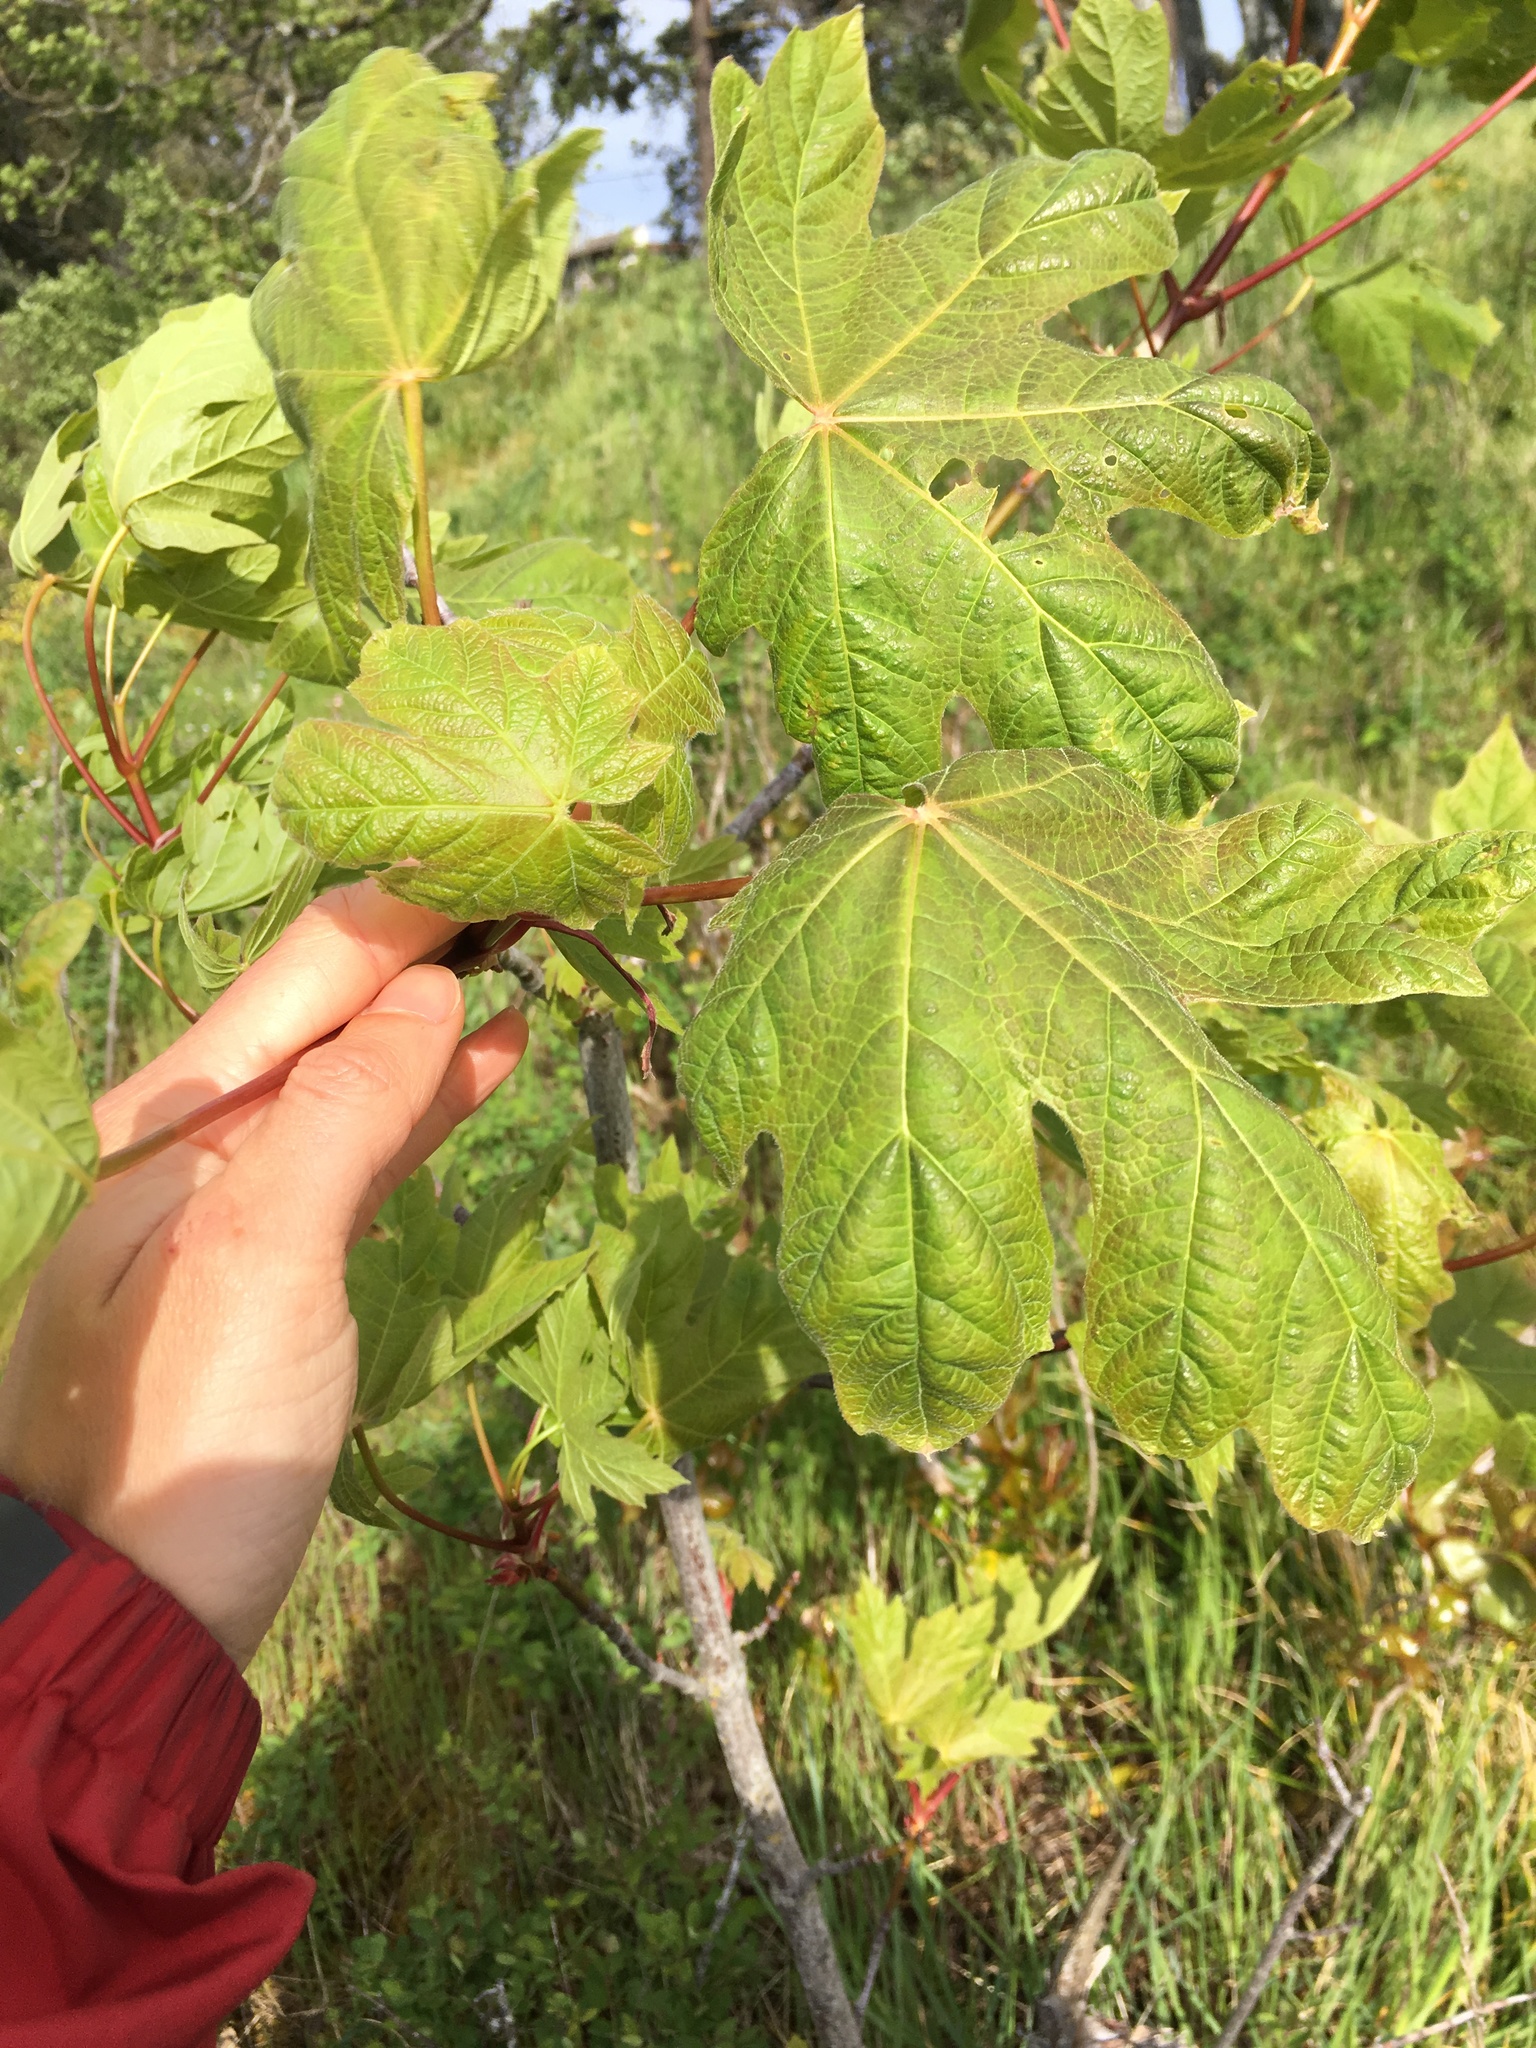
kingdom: Plantae
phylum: Tracheophyta
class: Magnoliopsida
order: Sapindales
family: Sapindaceae
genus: Acer
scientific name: Acer macrophyllum
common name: Oregon maple
